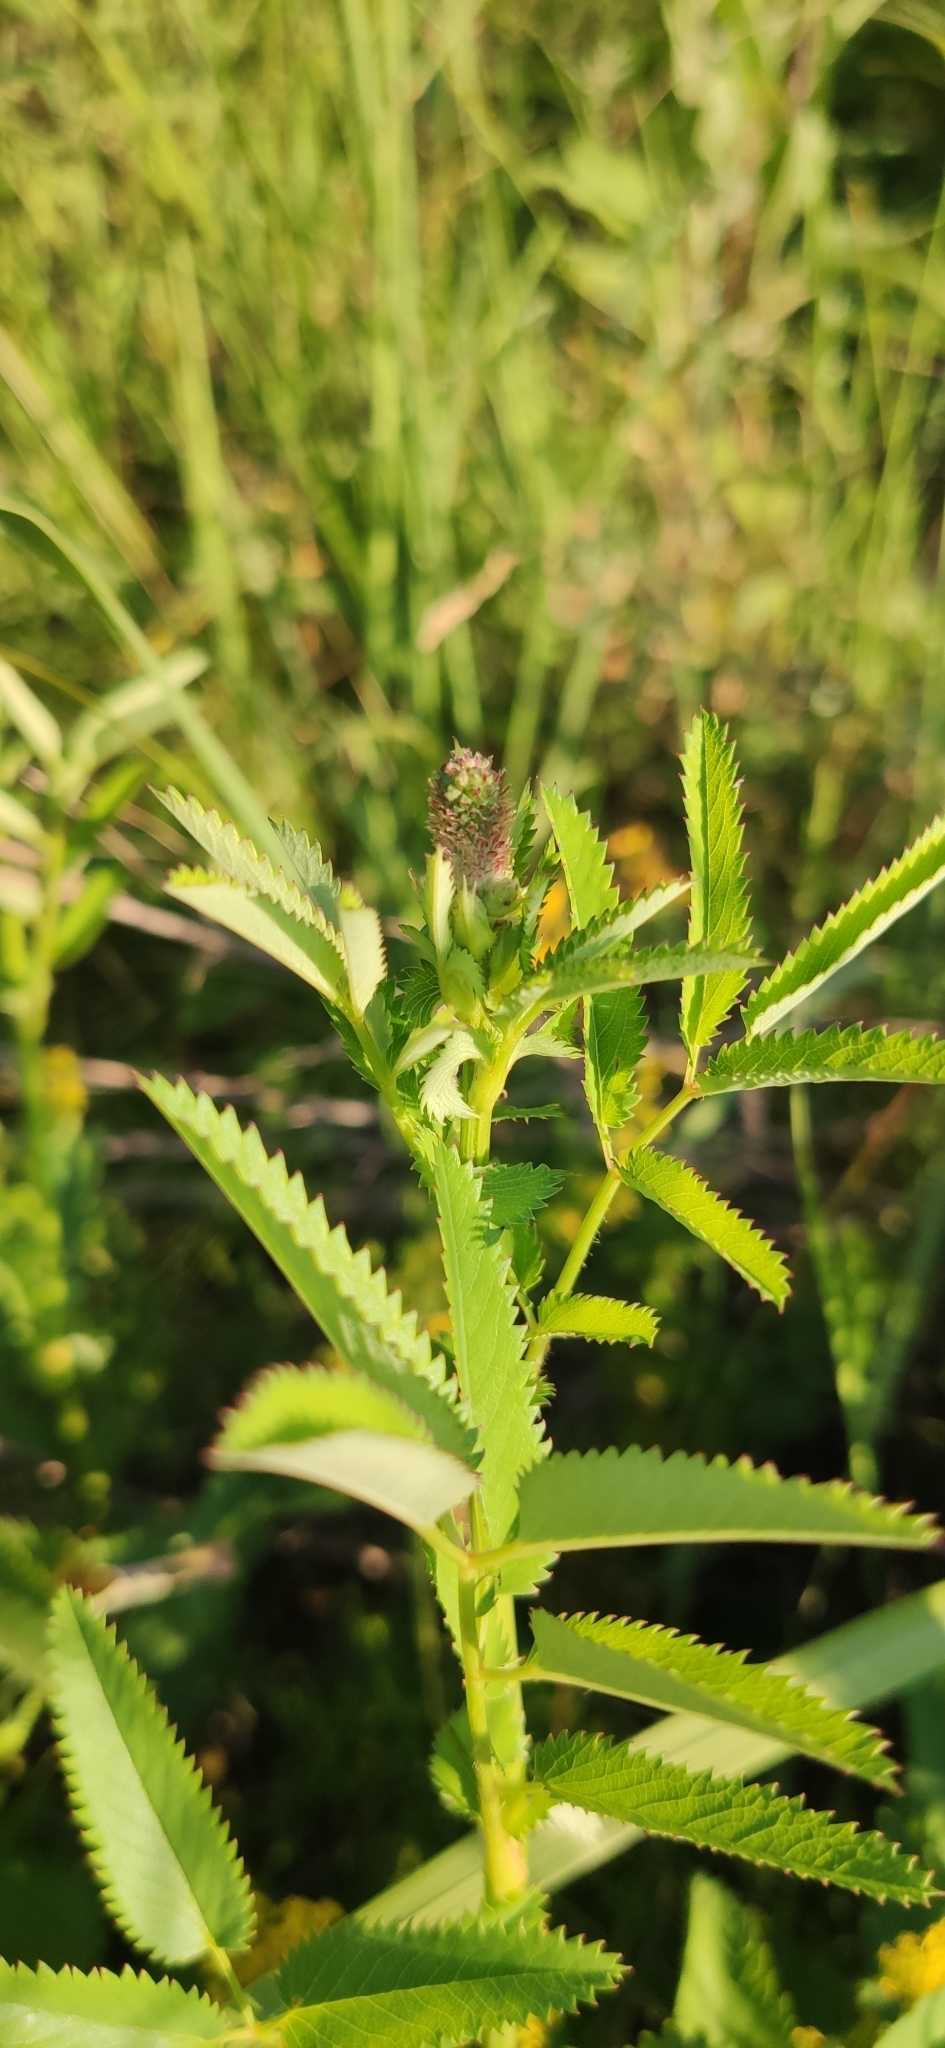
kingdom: Plantae
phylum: Tracheophyta
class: Magnoliopsida
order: Rosales
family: Rosaceae
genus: Sanguisorba
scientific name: Sanguisorba officinalis
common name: Great burnet
